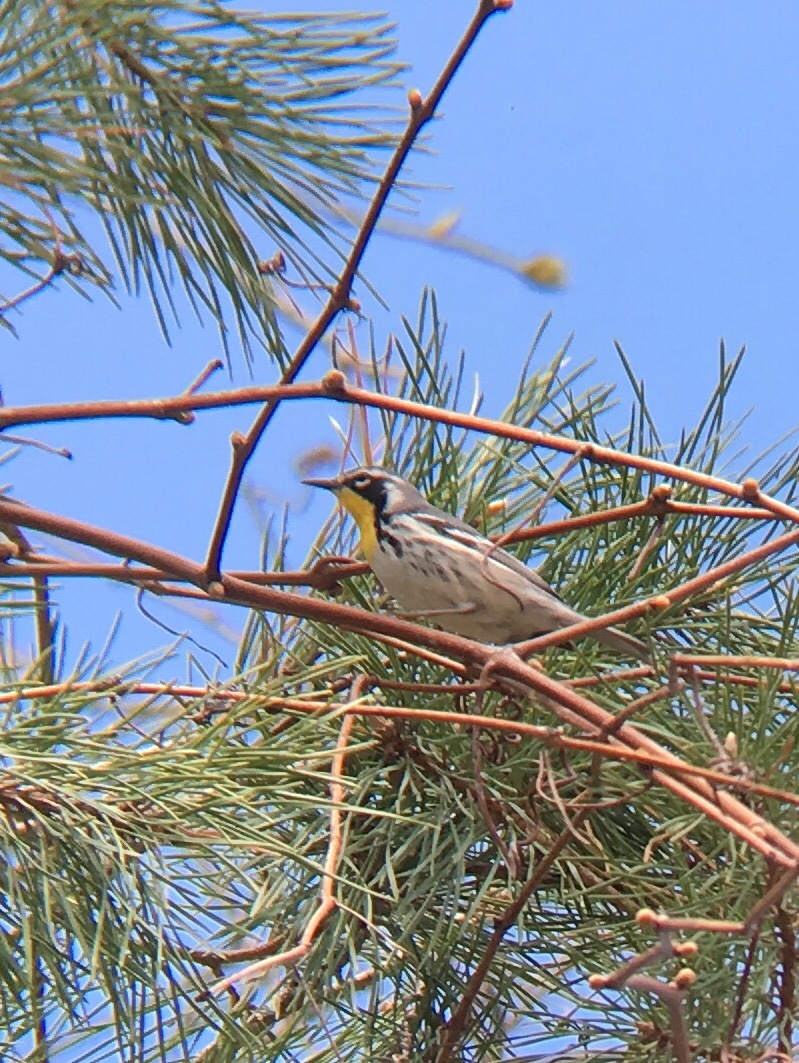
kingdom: Animalia
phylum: Chordata
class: Aves
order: Passeriformes
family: Parulidae
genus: Setophaga
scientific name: Setophaga dominica
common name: Yellow-throated warbler
